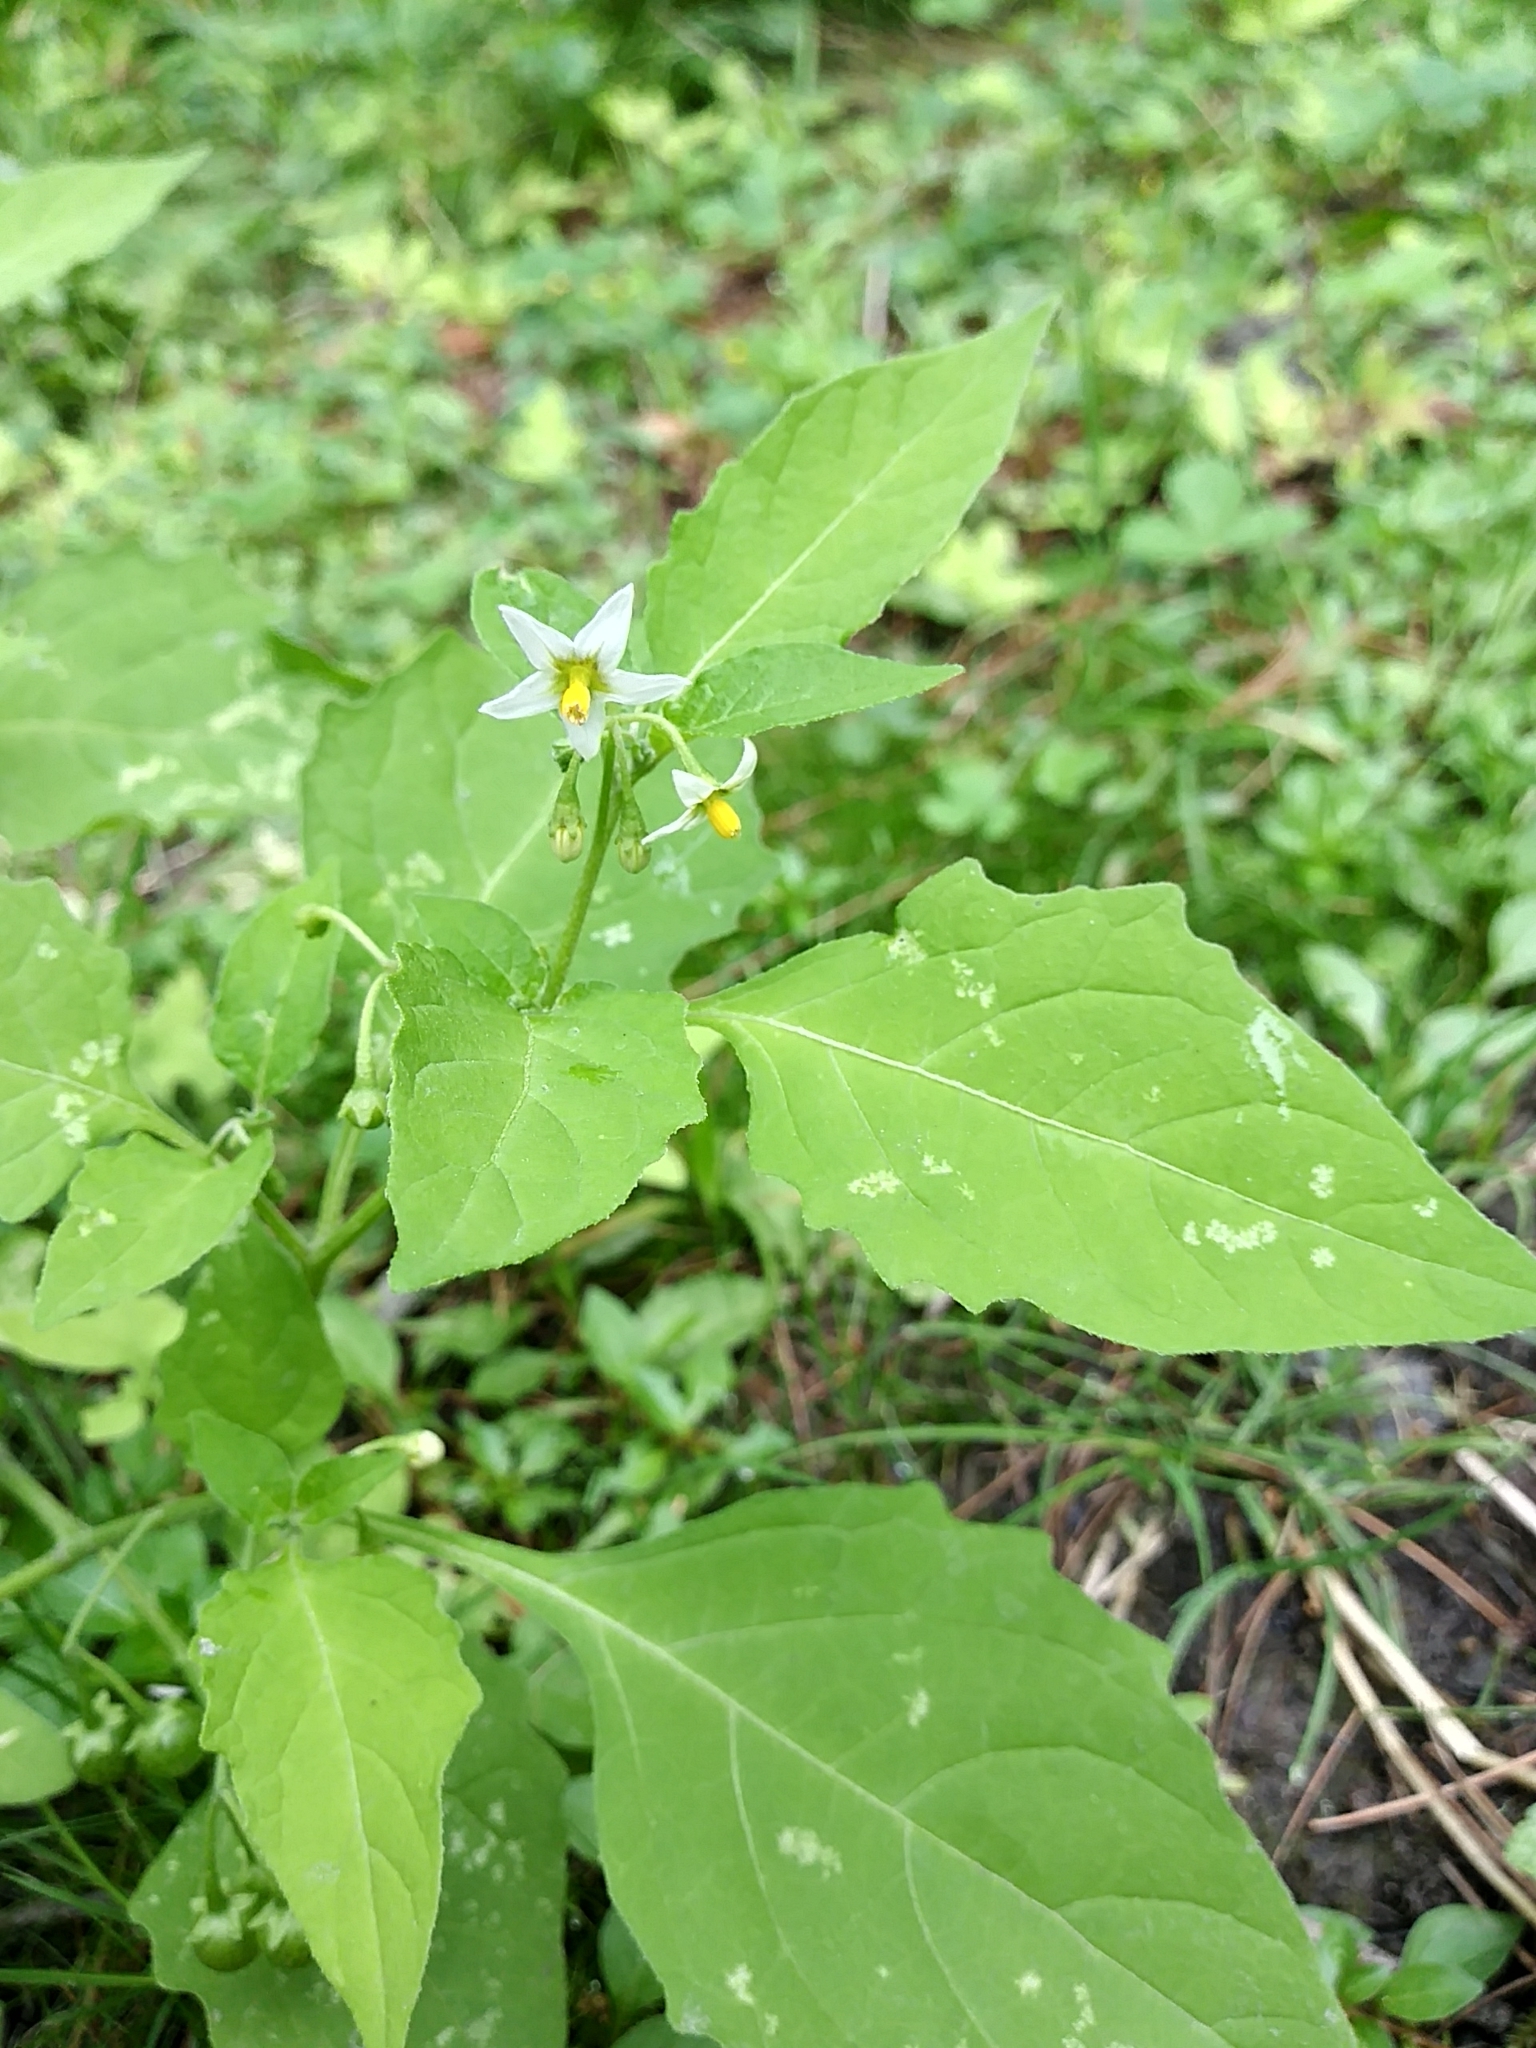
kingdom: Plantae
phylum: Tracheophyta
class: Magnoliopsida
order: Solanales
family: Solanaceae
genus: Solanum
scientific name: Solanum emulans
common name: Eastern black nightshade
